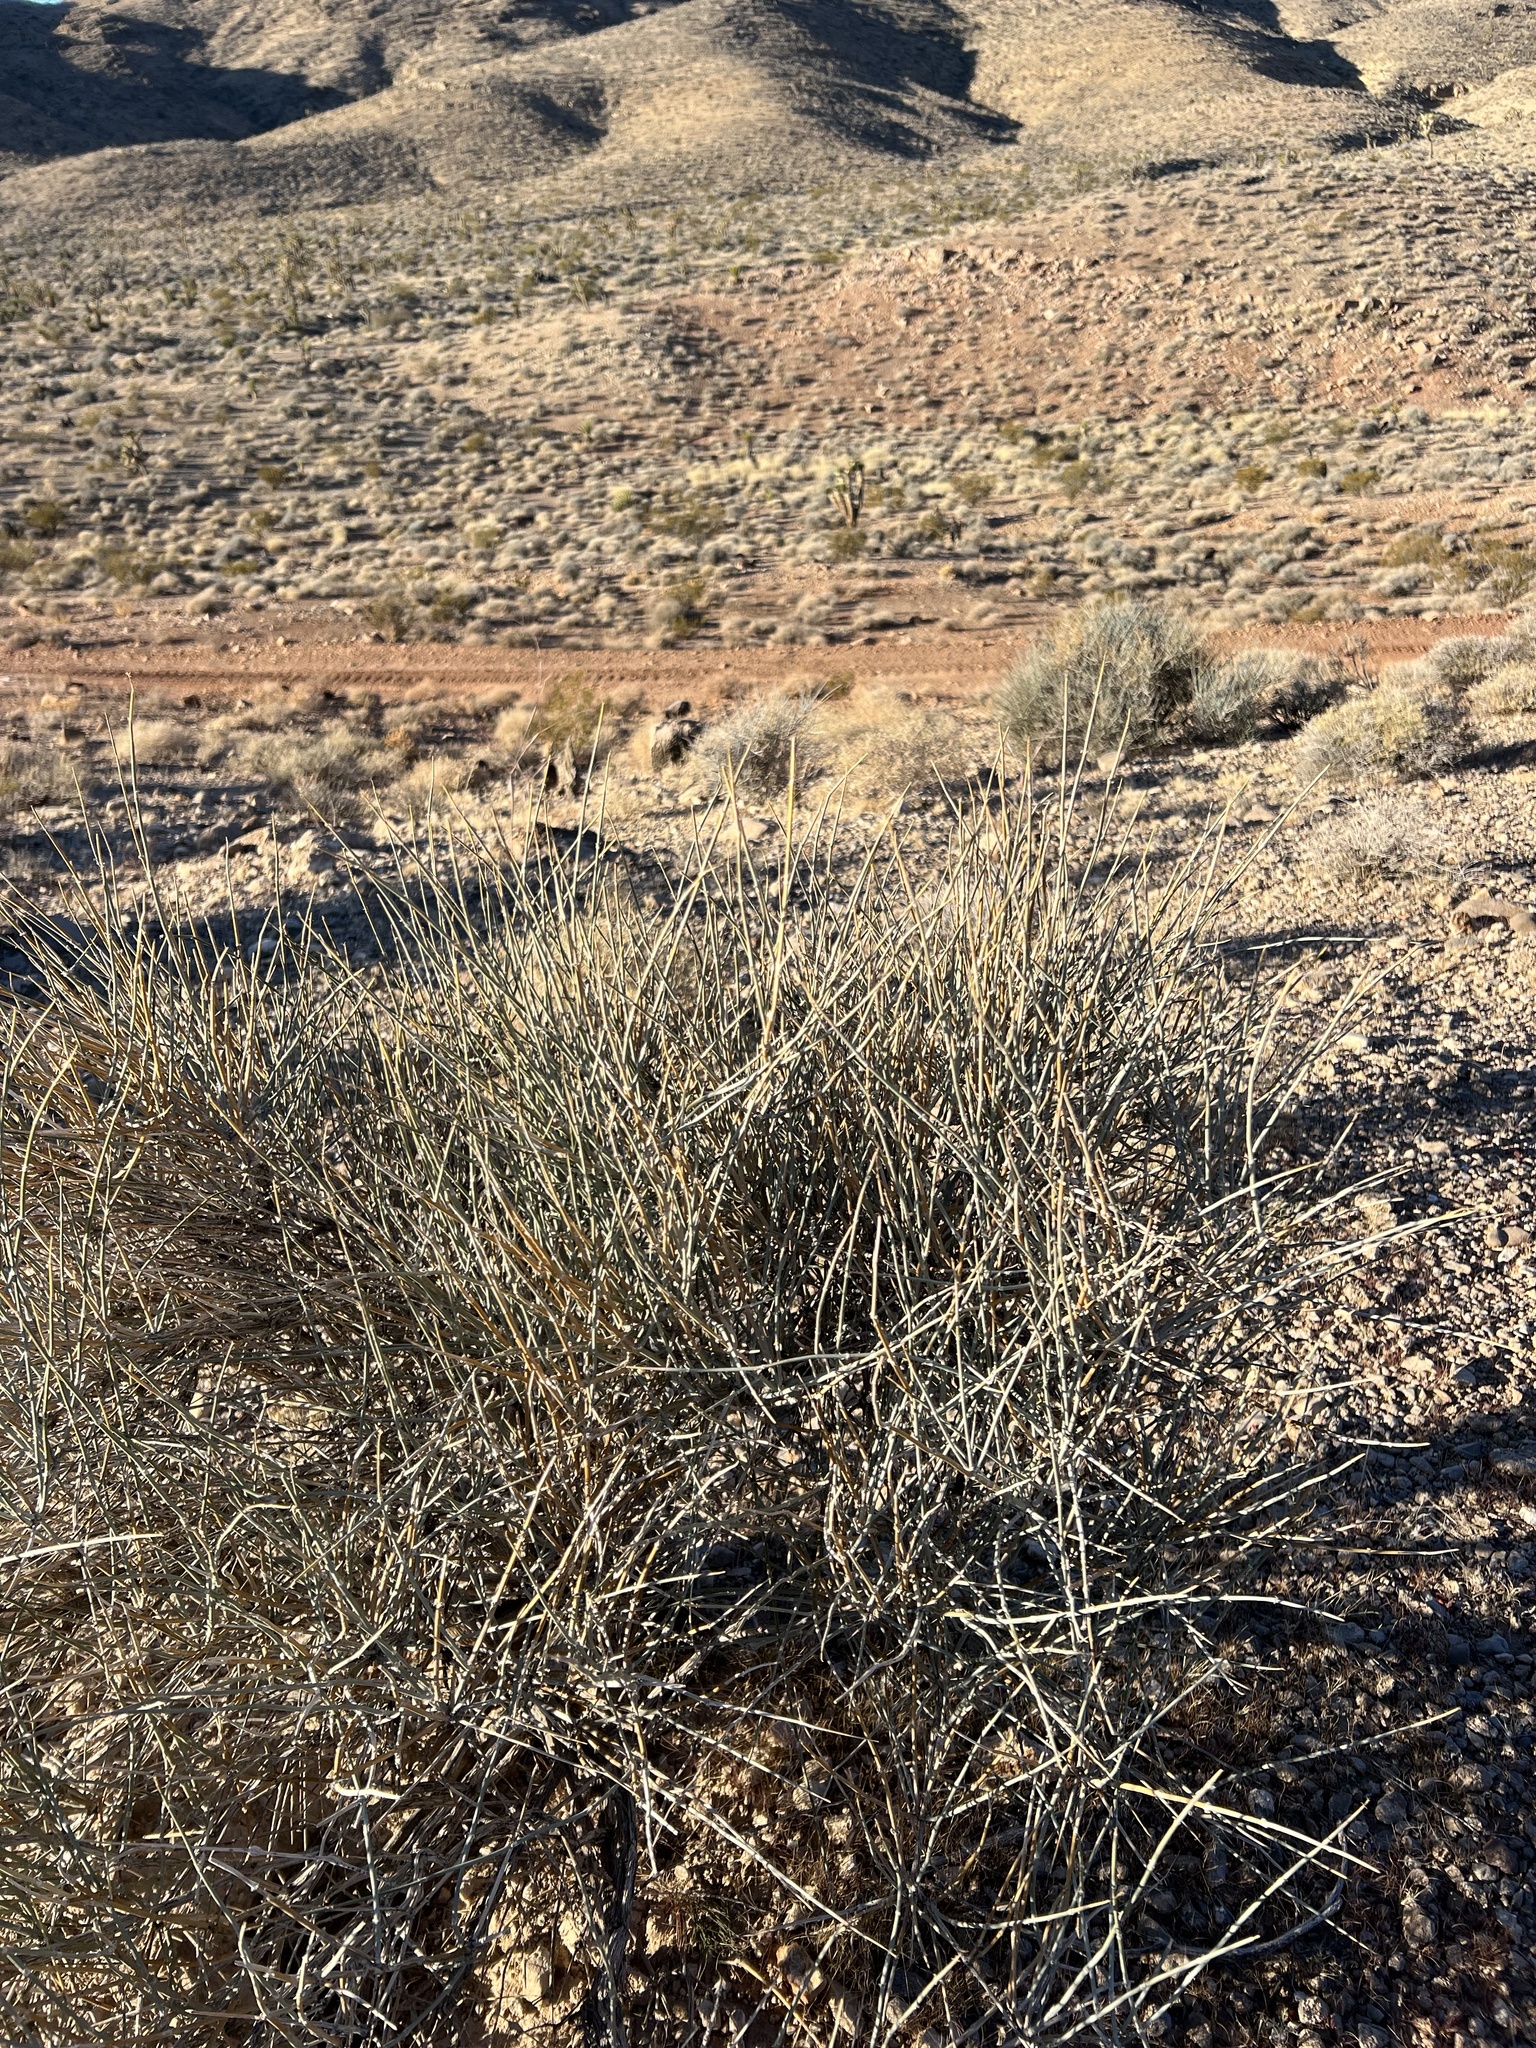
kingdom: Plantae
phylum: Tracheophyta
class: Gnetopsida
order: Ephedrales
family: Ephedraceae
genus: Ephedra
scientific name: Ephedra nevadensis
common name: Gray ephedra
